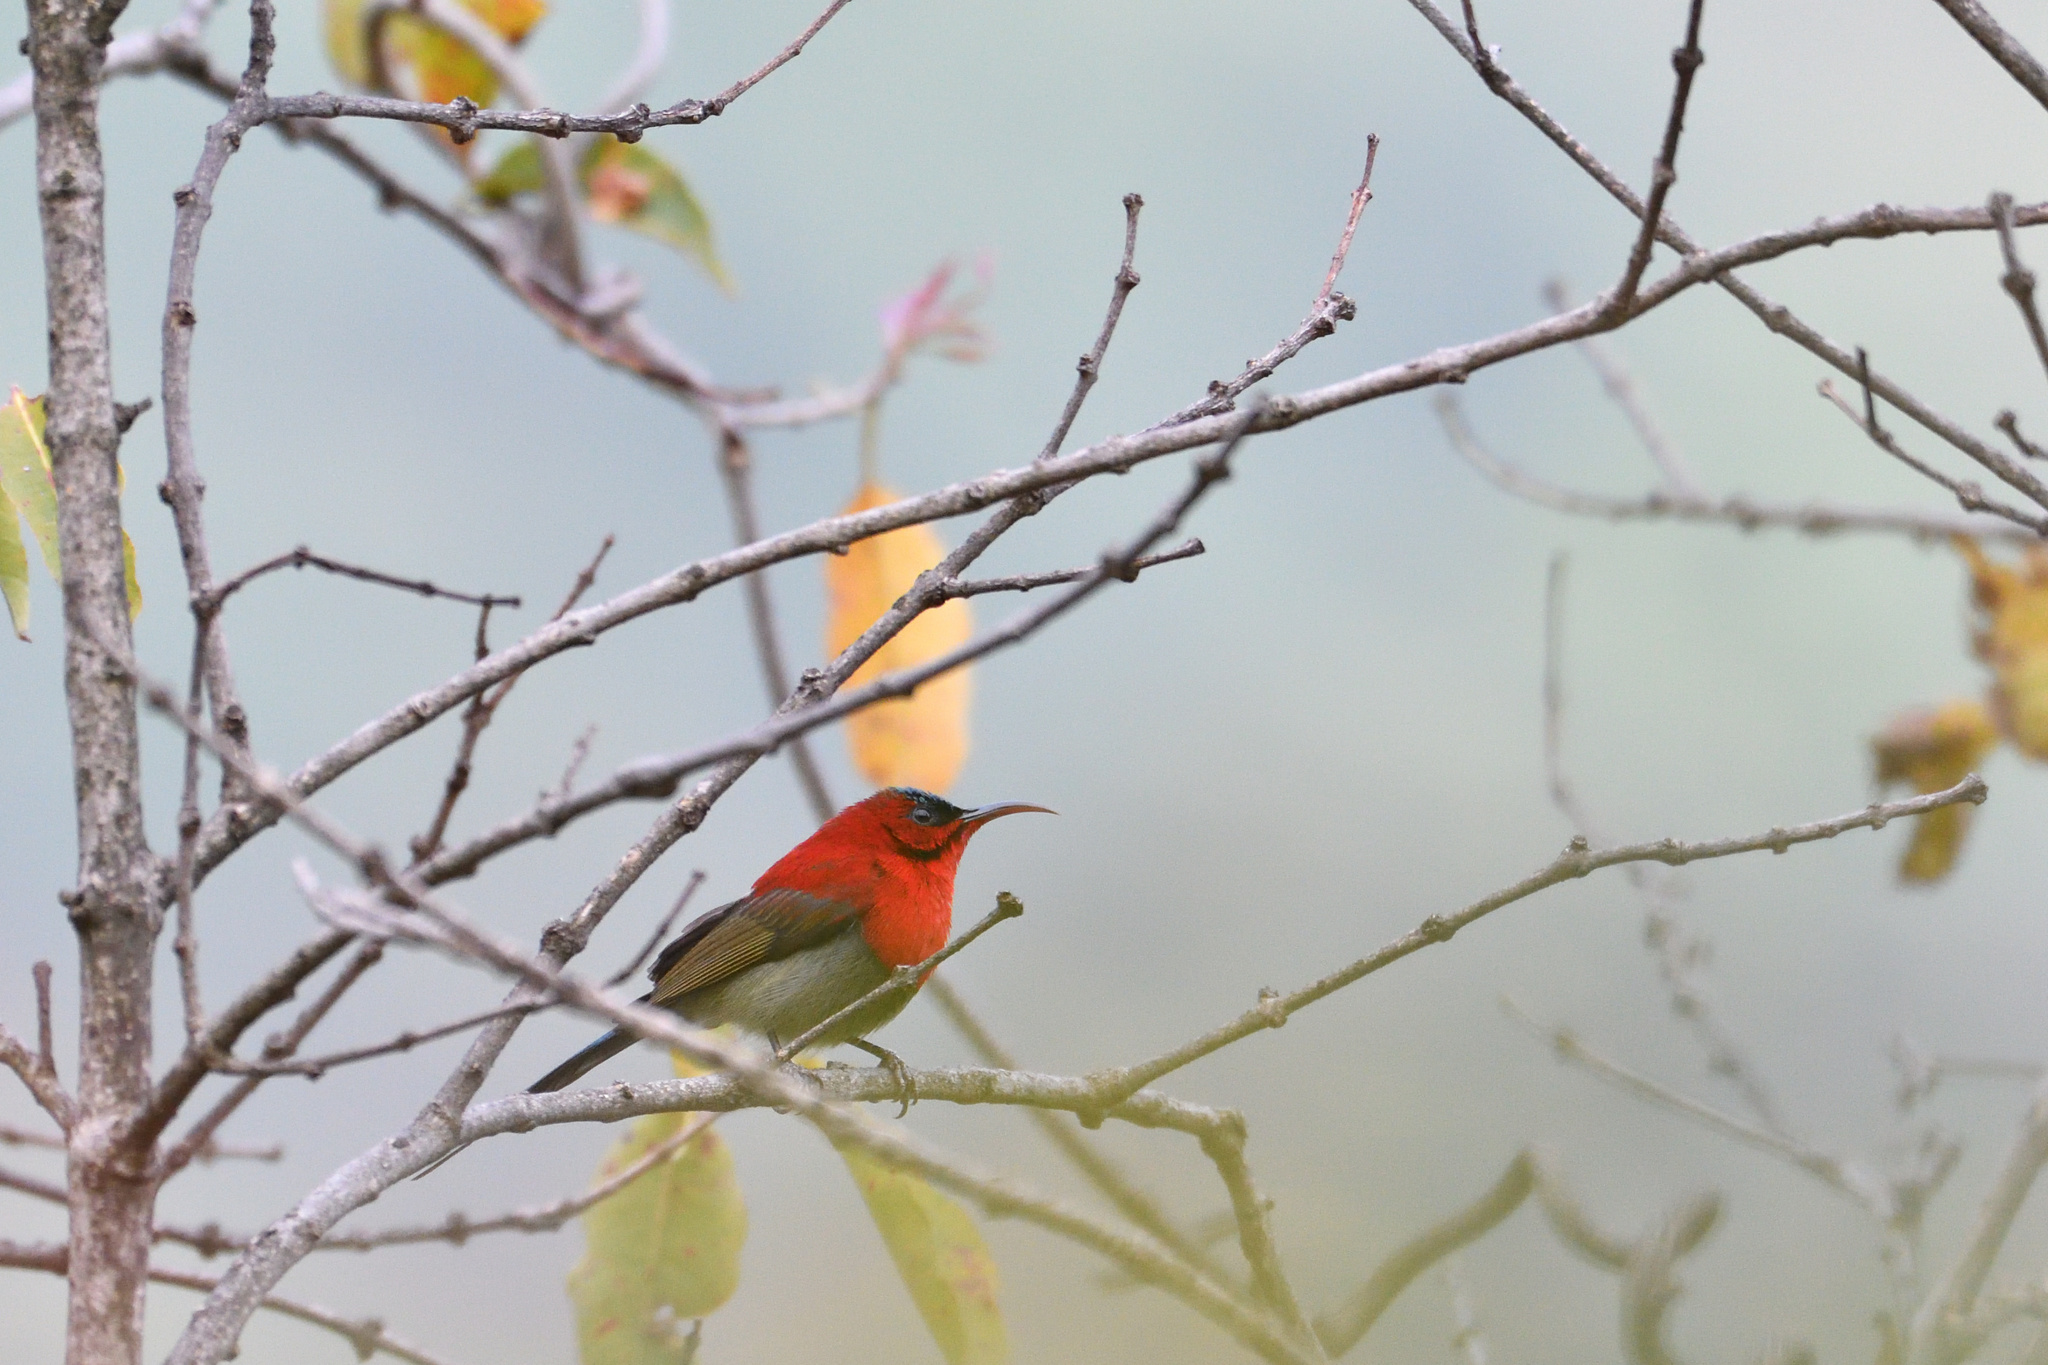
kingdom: Animalia
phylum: Chordata
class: Aves
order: Passeriformes
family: Nectariniidae
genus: Aethopyga
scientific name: Aethopyga siparaja
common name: Crimson sunbird
